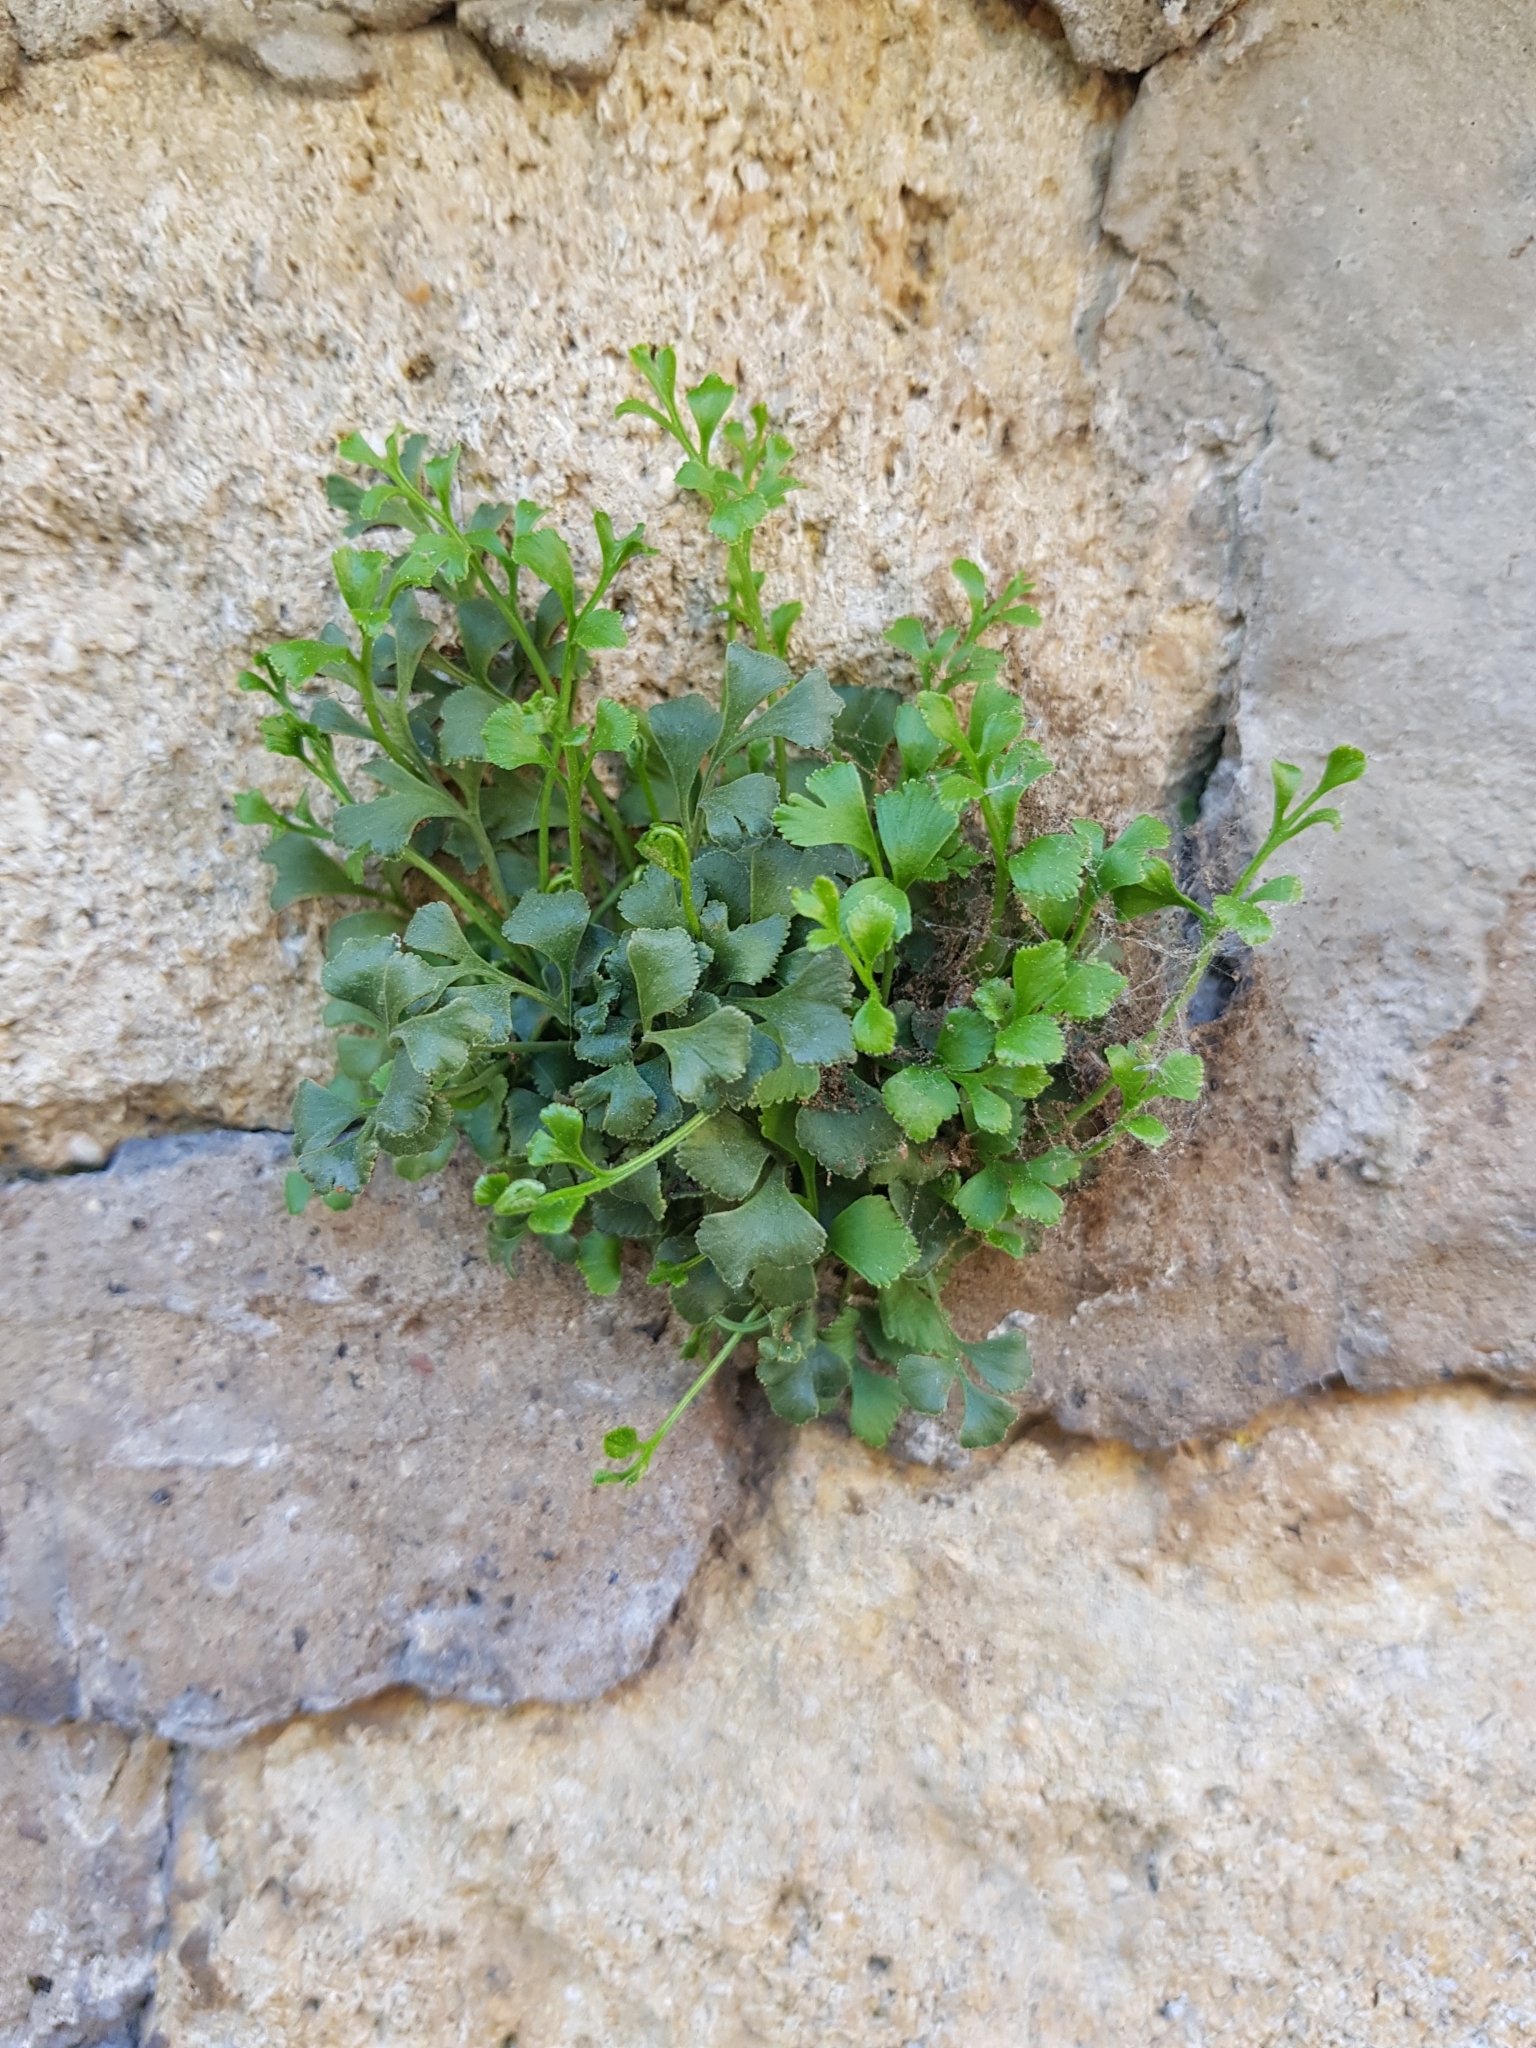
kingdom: Plantae
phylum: Tracheophyta
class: Polypodiopsida
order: Polypodiales
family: Aspleniaceae
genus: Asplenium
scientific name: Asplenium ruta-muraria
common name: Wall-rue
